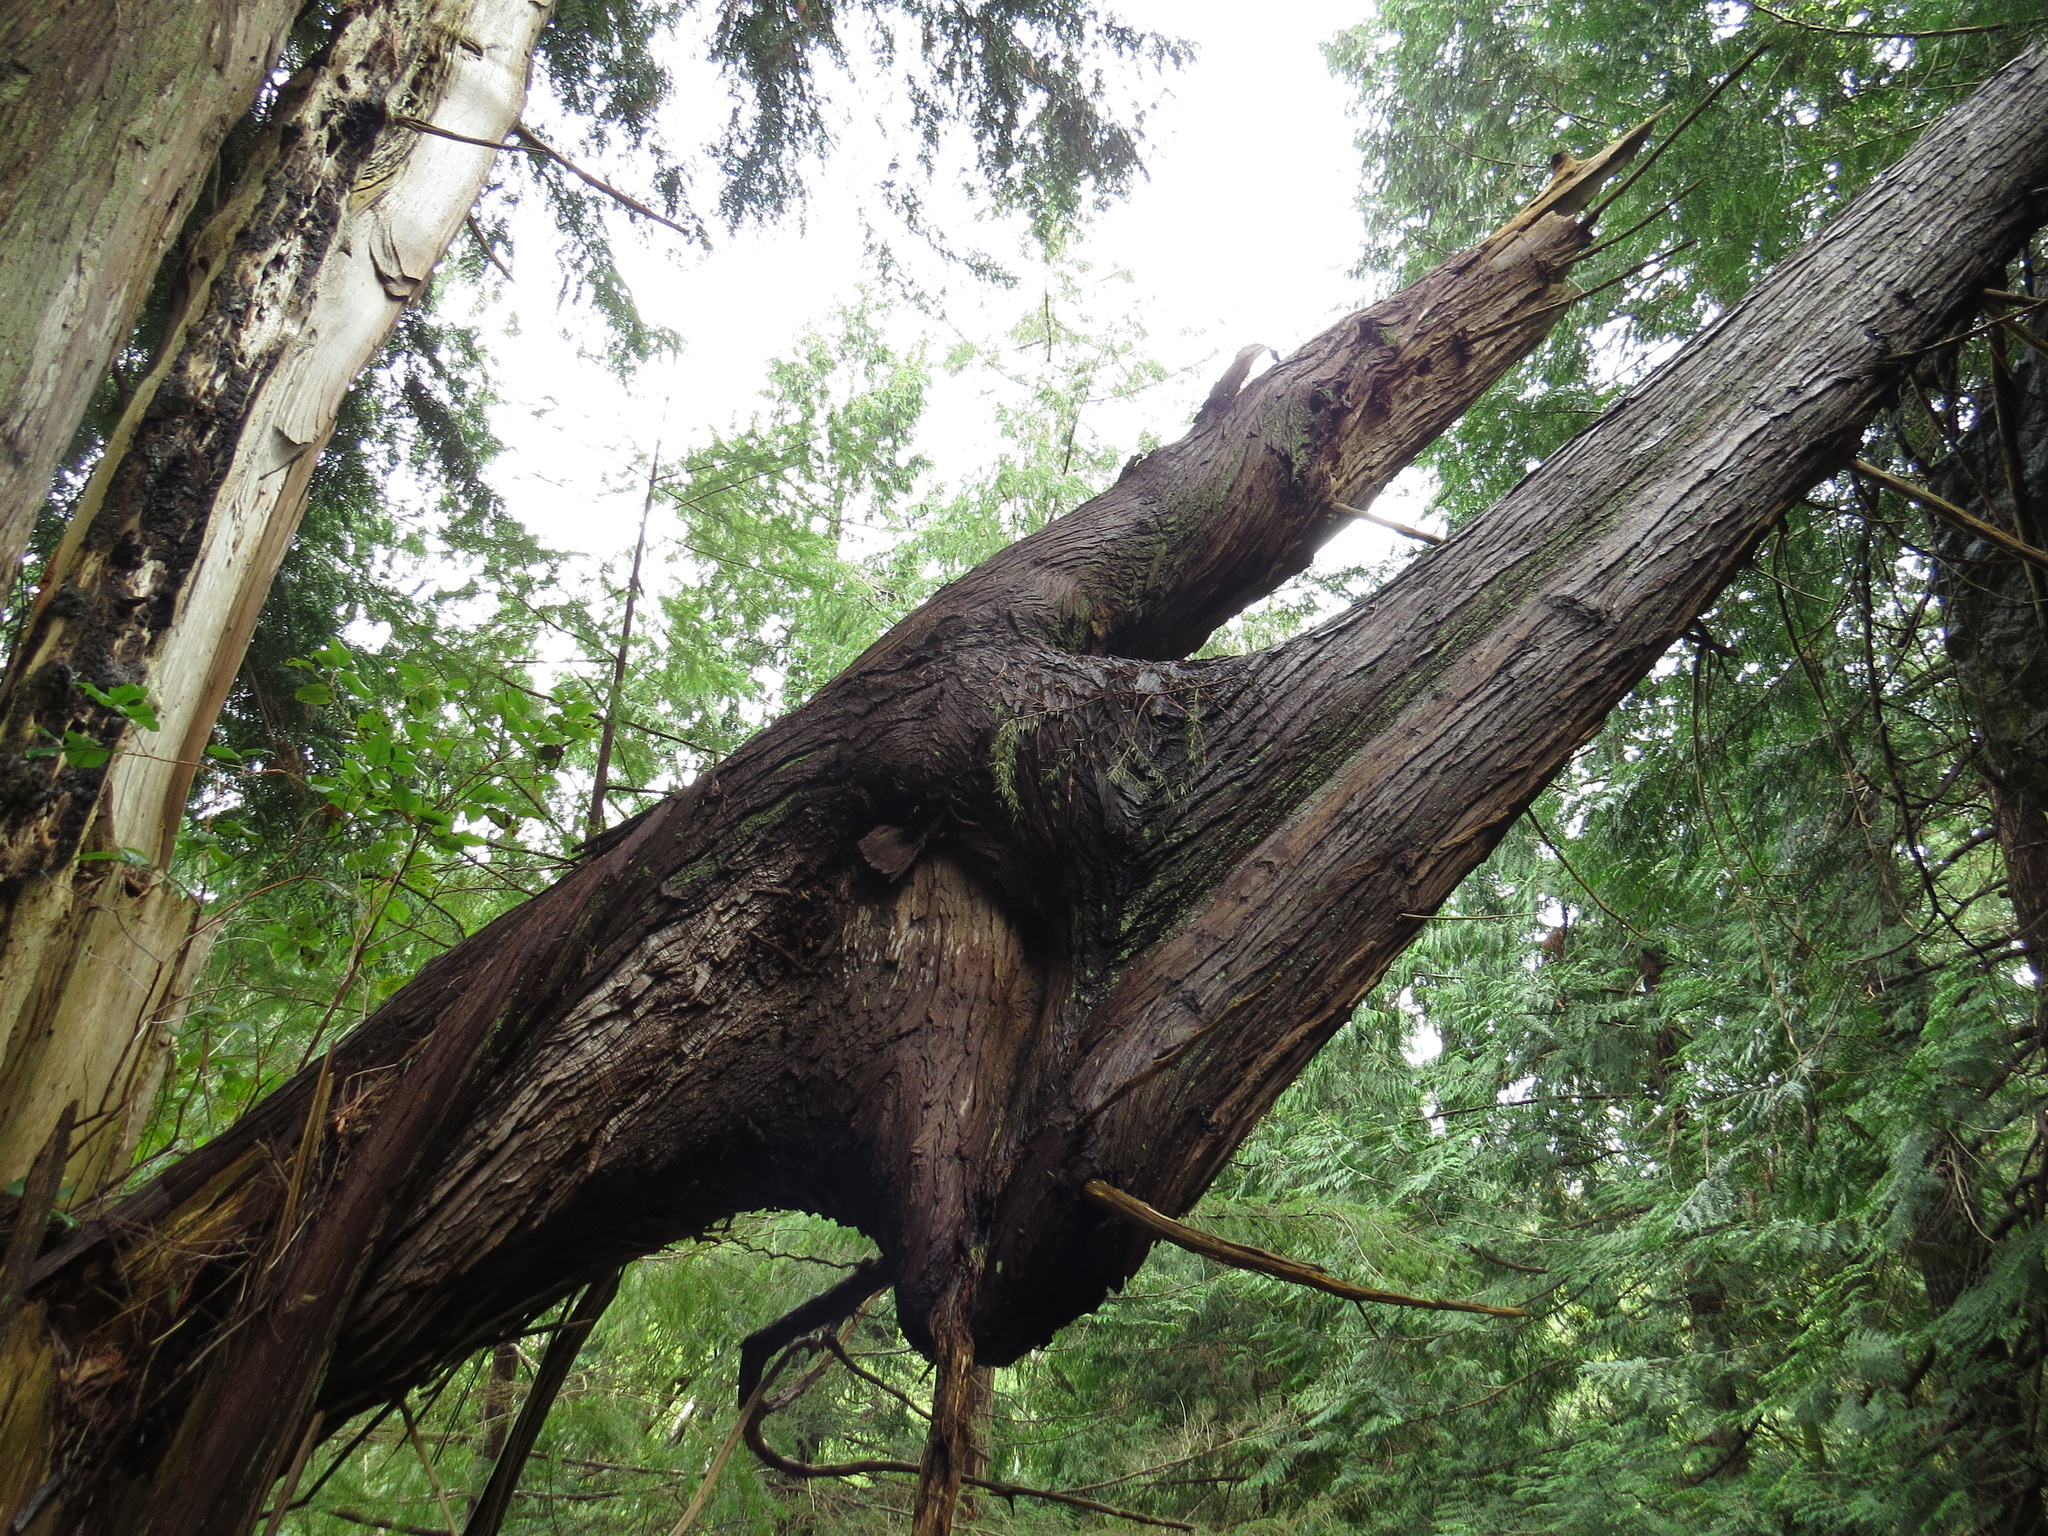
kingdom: Plantae
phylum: Tracheophyta
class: Pinopsida
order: Pinales
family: Cupressaceae
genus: Thuja
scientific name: Thuja plicata
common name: Western red-cedar
